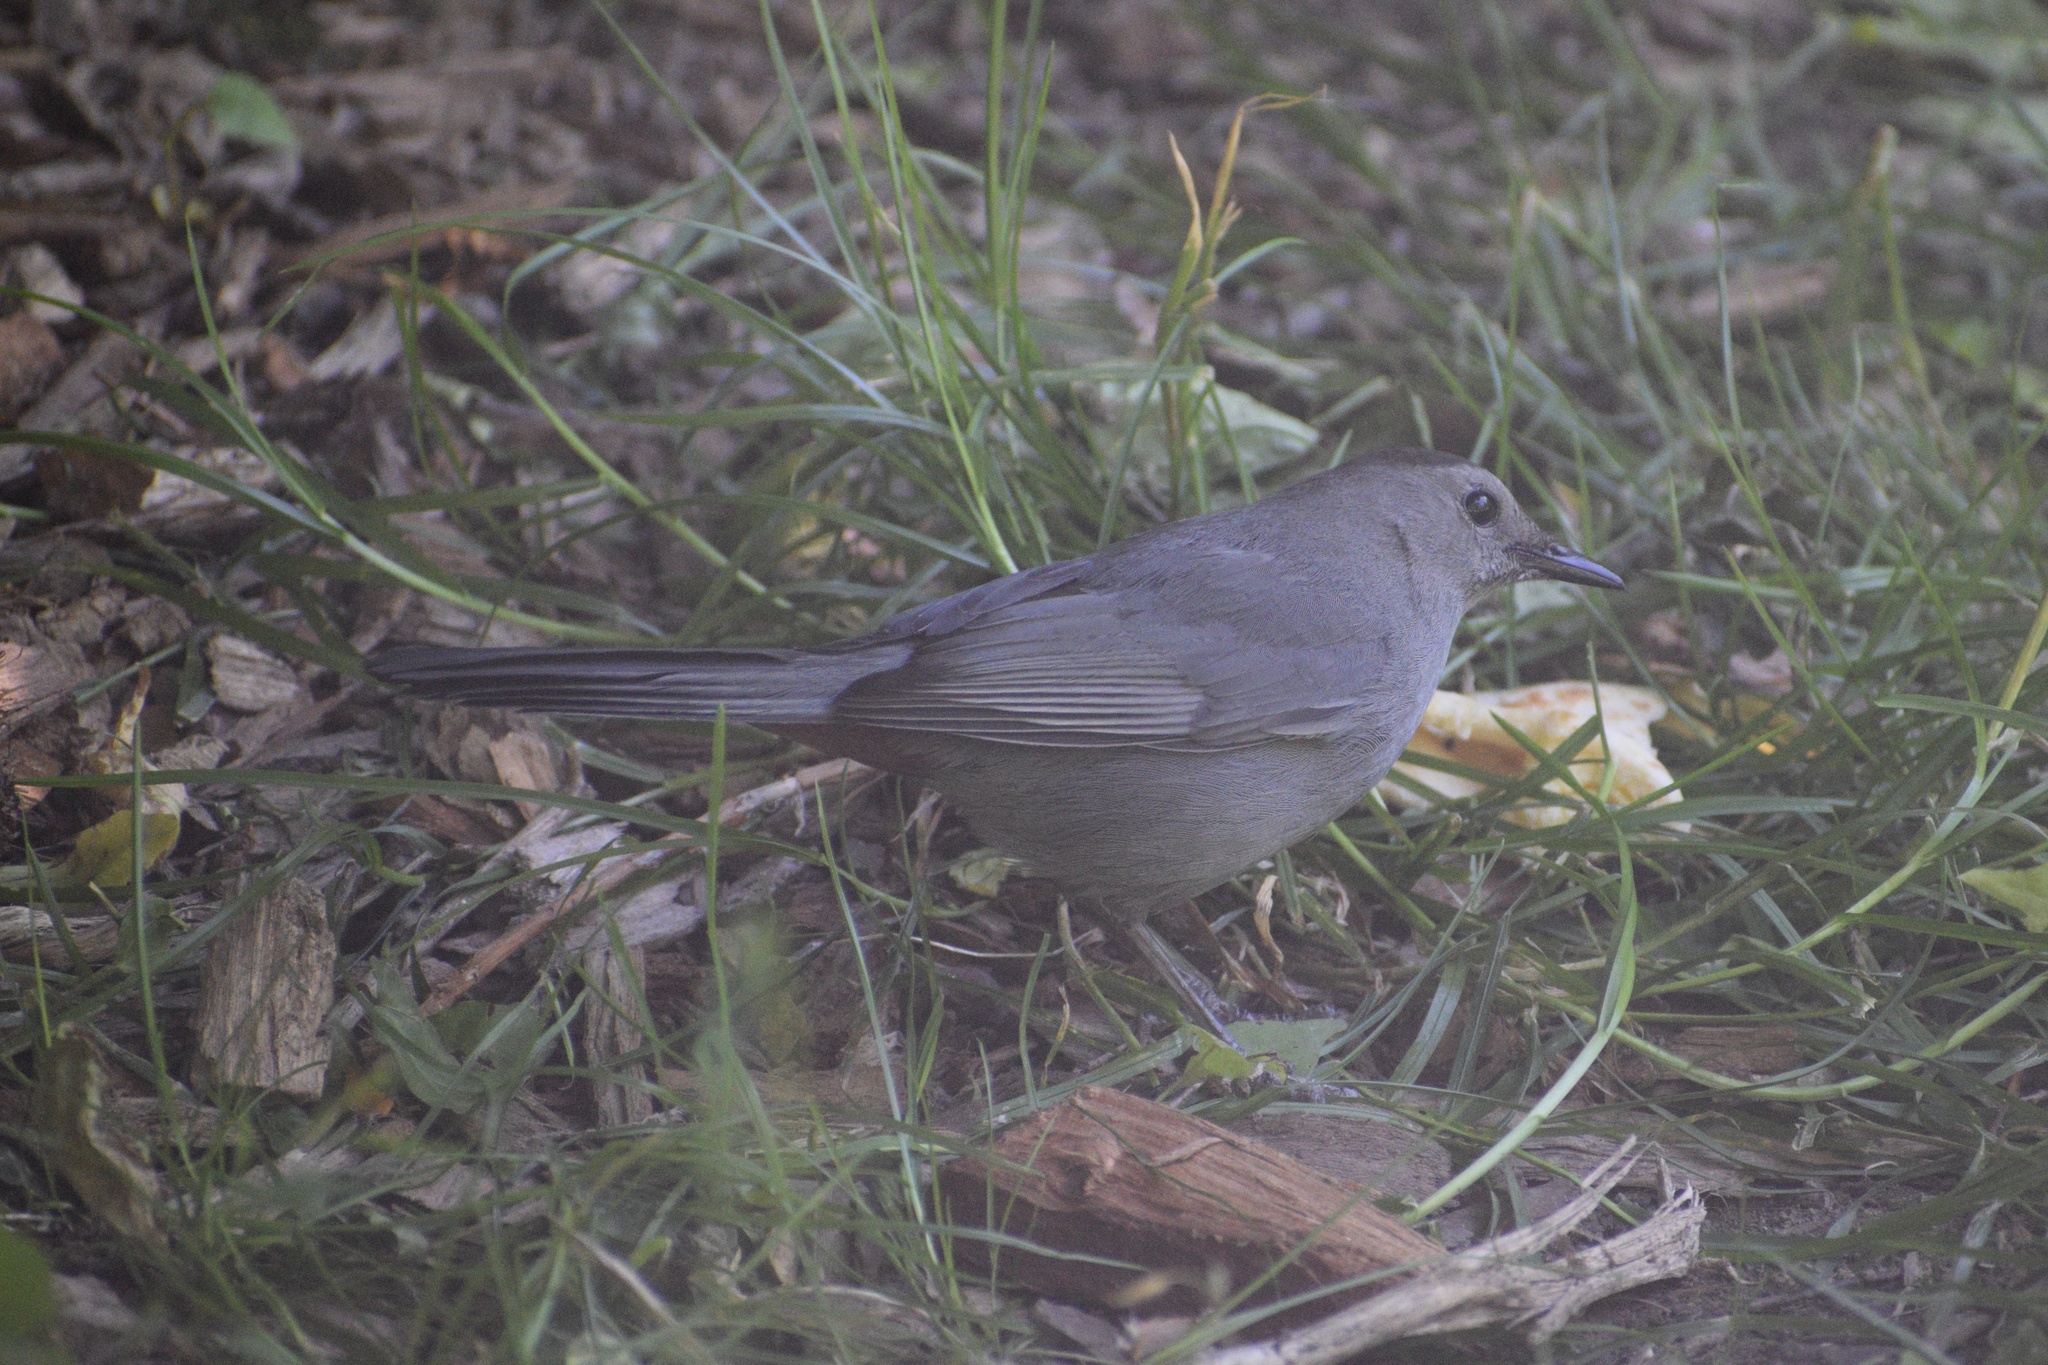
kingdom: Animalia
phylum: Chordata
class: Aves
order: Passeriformes
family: Mimidae
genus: Dumetella
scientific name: Dumetella carolinensis
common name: Gray catbird
